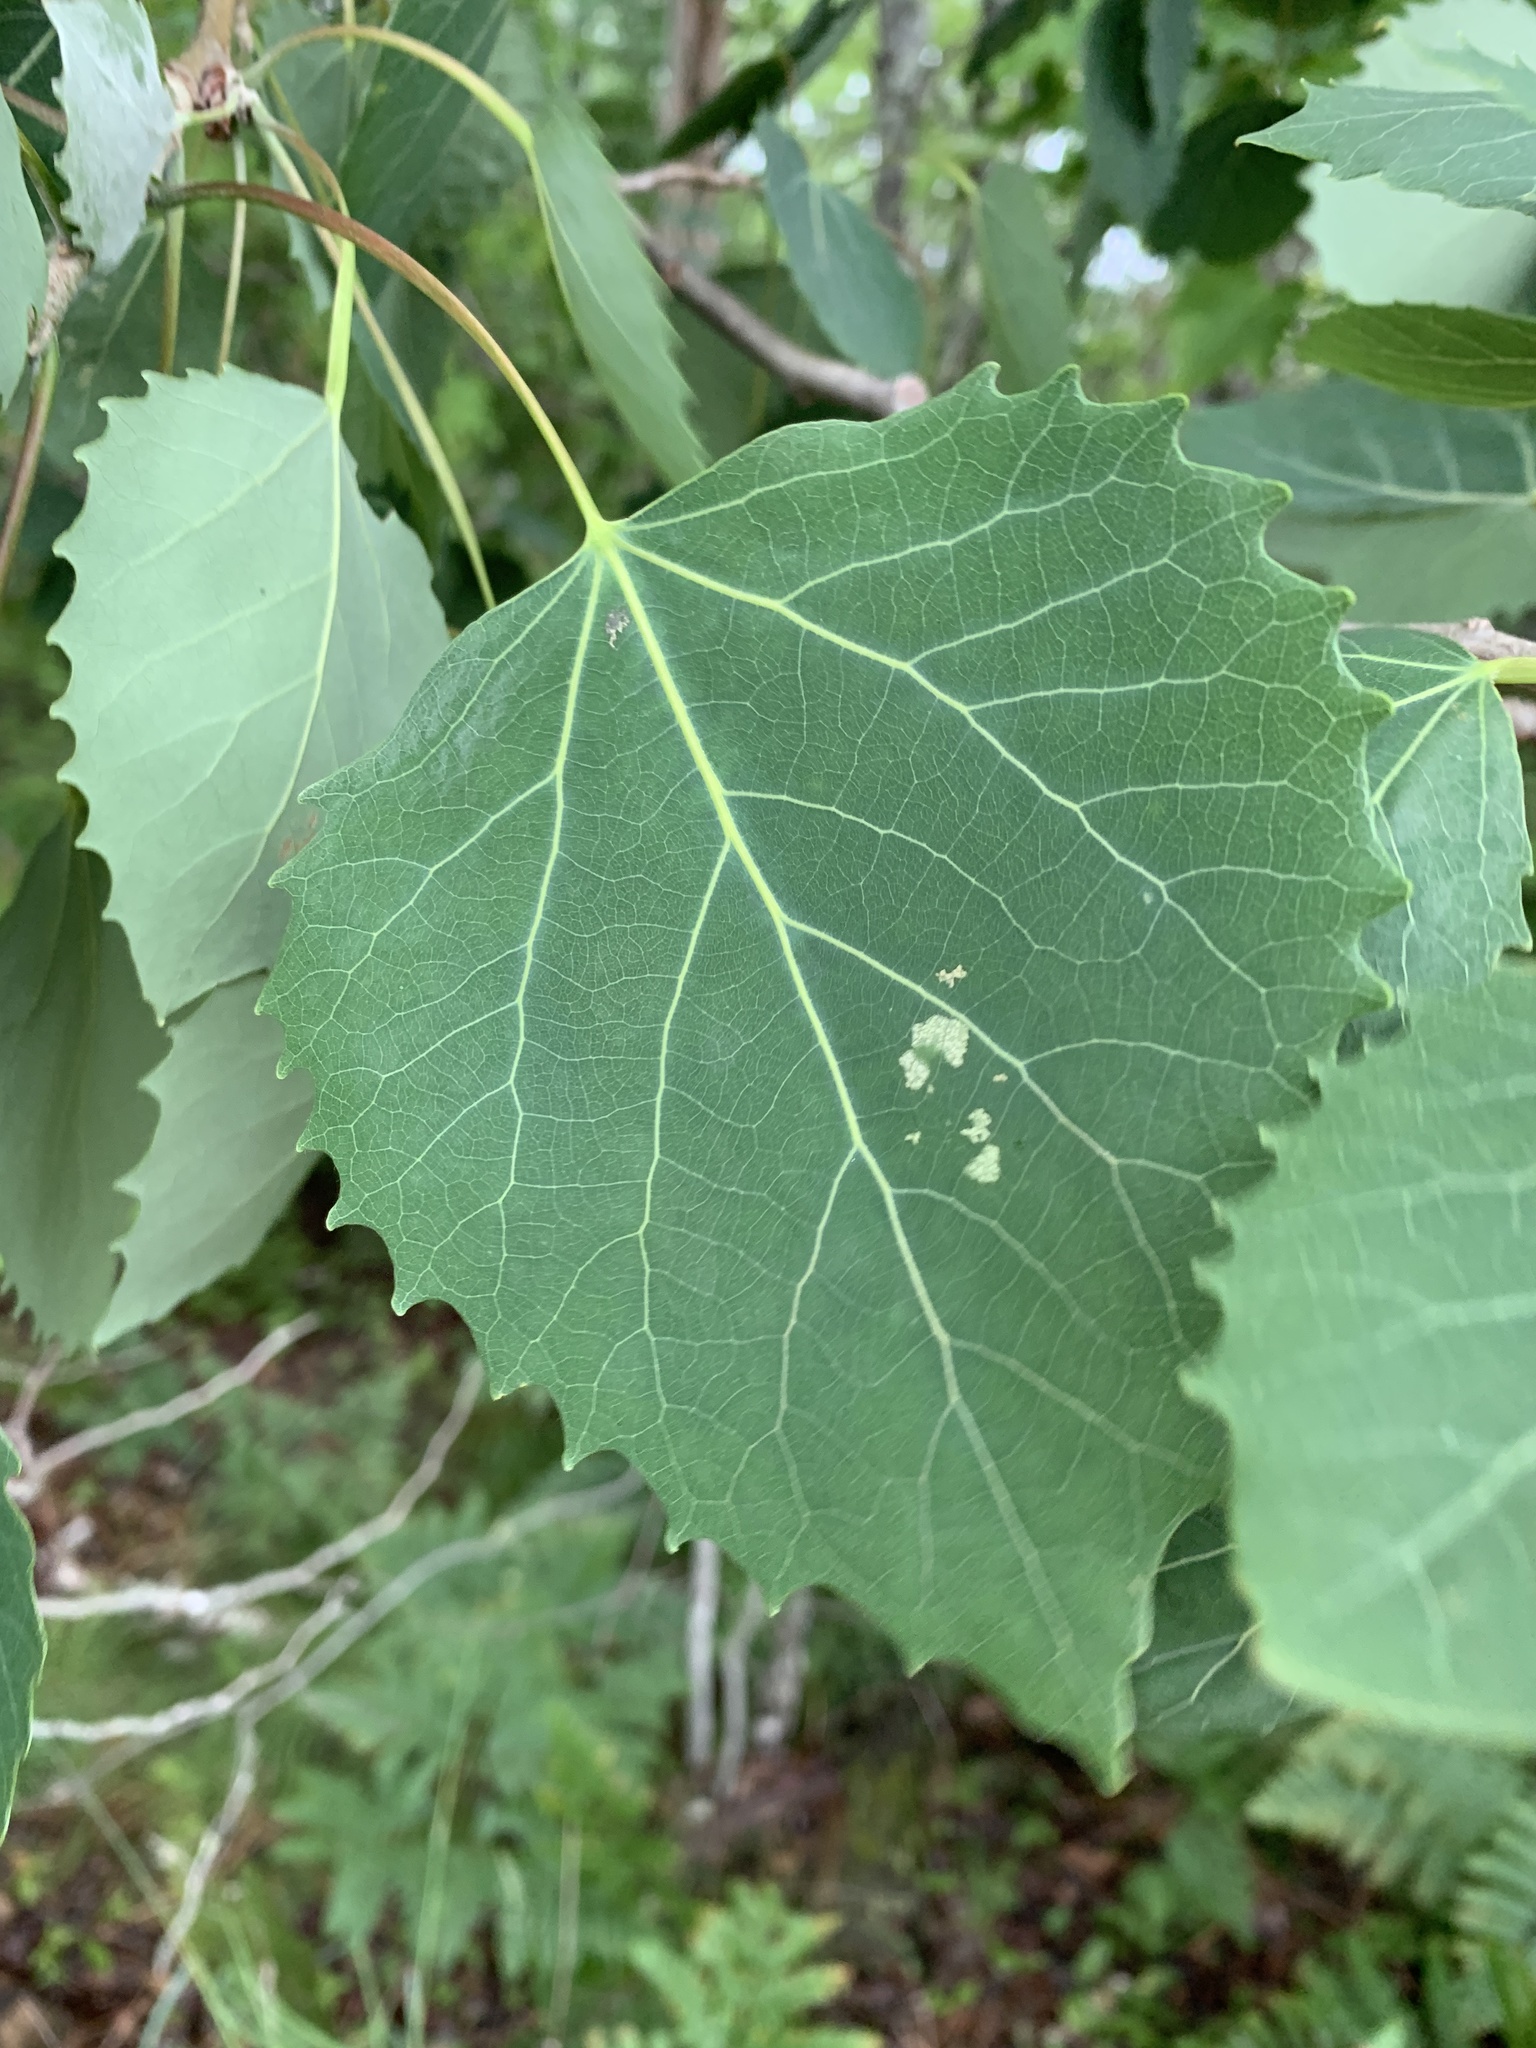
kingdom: Plantae
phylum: Tracheophyta
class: Magnoliopsida
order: Malpighiales
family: Salicaceae
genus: Populus
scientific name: Populus grandidentata
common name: Bigtooth aspen
